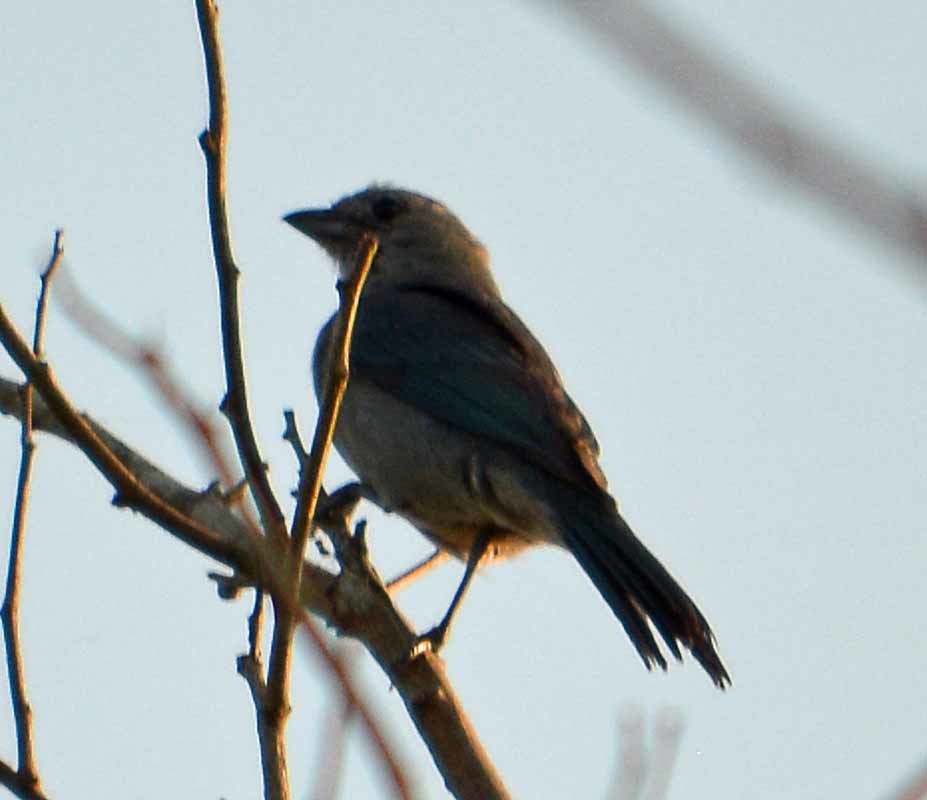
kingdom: Animalia
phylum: Chordata
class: Aves
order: Passeriformes
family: Thraupidae
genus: Thraupis
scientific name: Thraupis episcopus
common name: Blue-grey tanager
